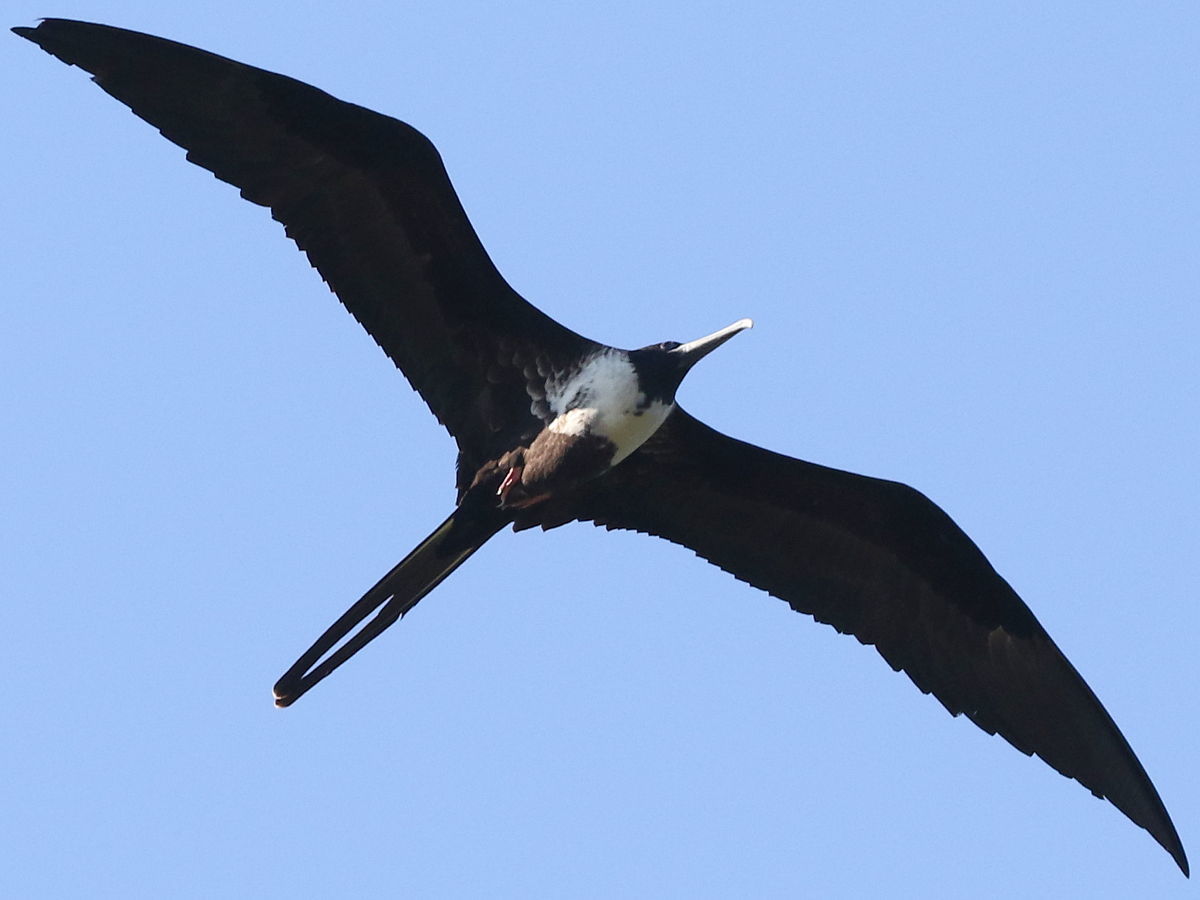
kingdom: Animalia
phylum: Chordata
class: Aves
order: Suliformes
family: Fregatidae
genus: Fregata
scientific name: Fregata magnificens
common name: Magnificent frigatebird
